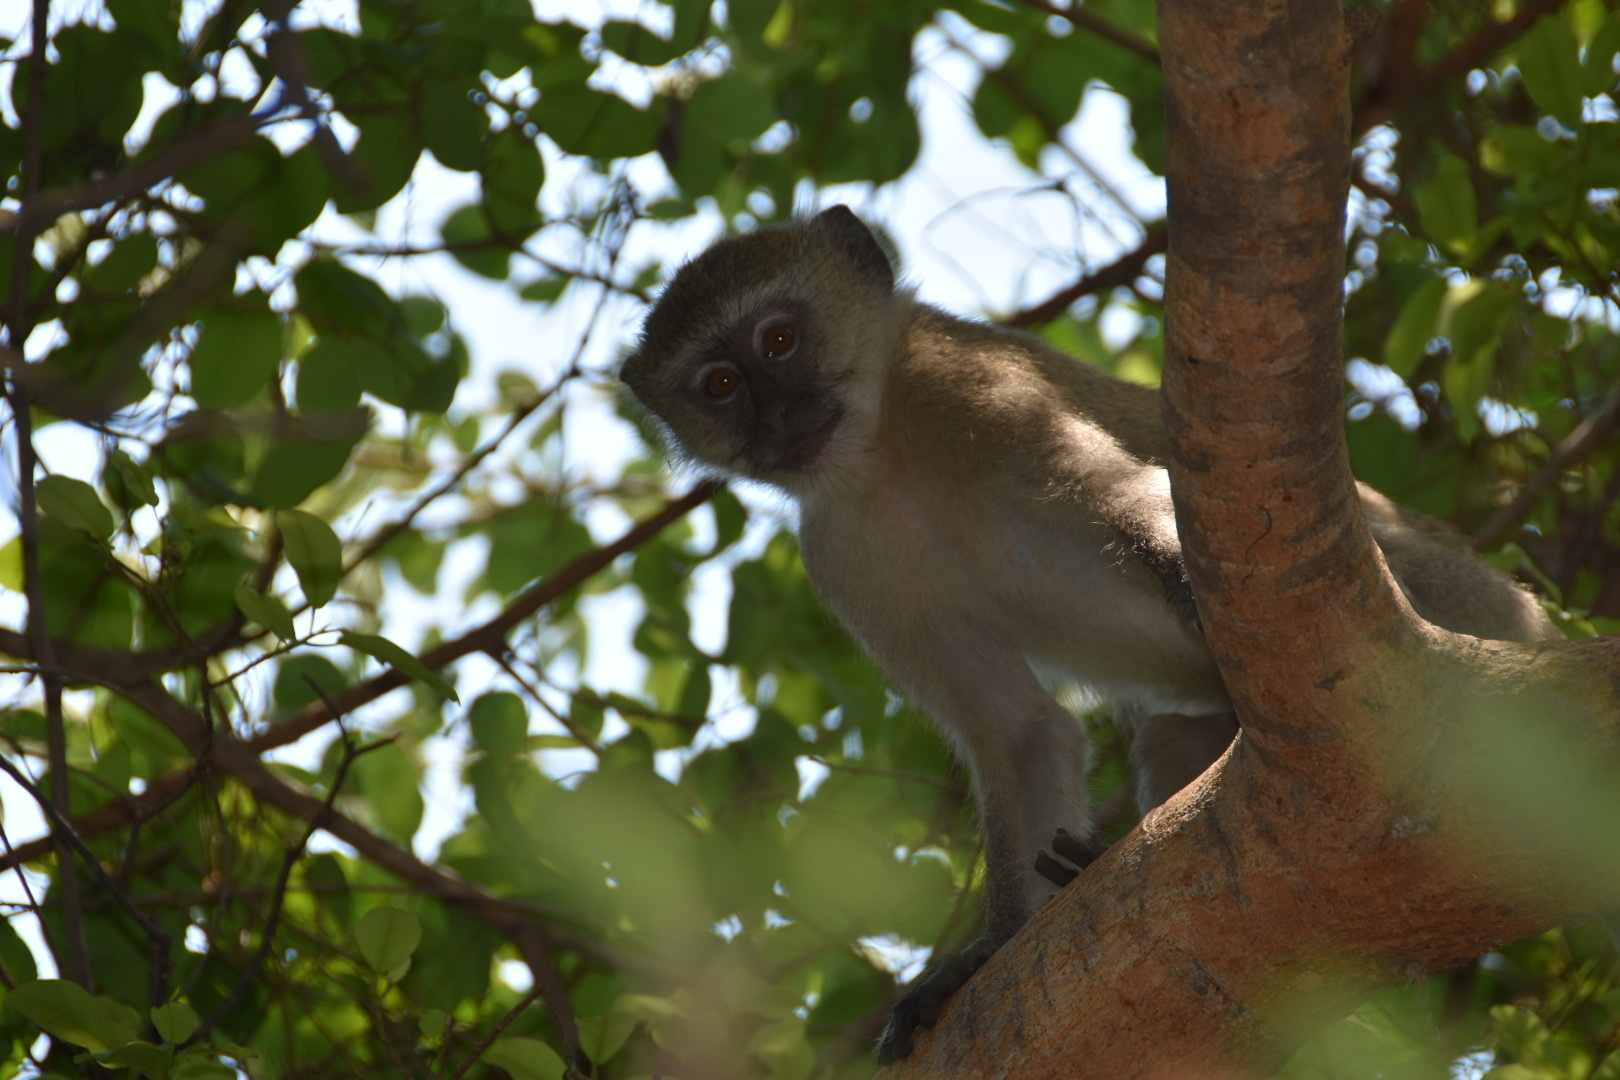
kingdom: Animalia
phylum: Chordata
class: Mammalia
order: Primates
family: Cercopithecidae
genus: Chlorocebus
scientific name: Chlorocebus pygerythrus
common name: Vervet monkey
